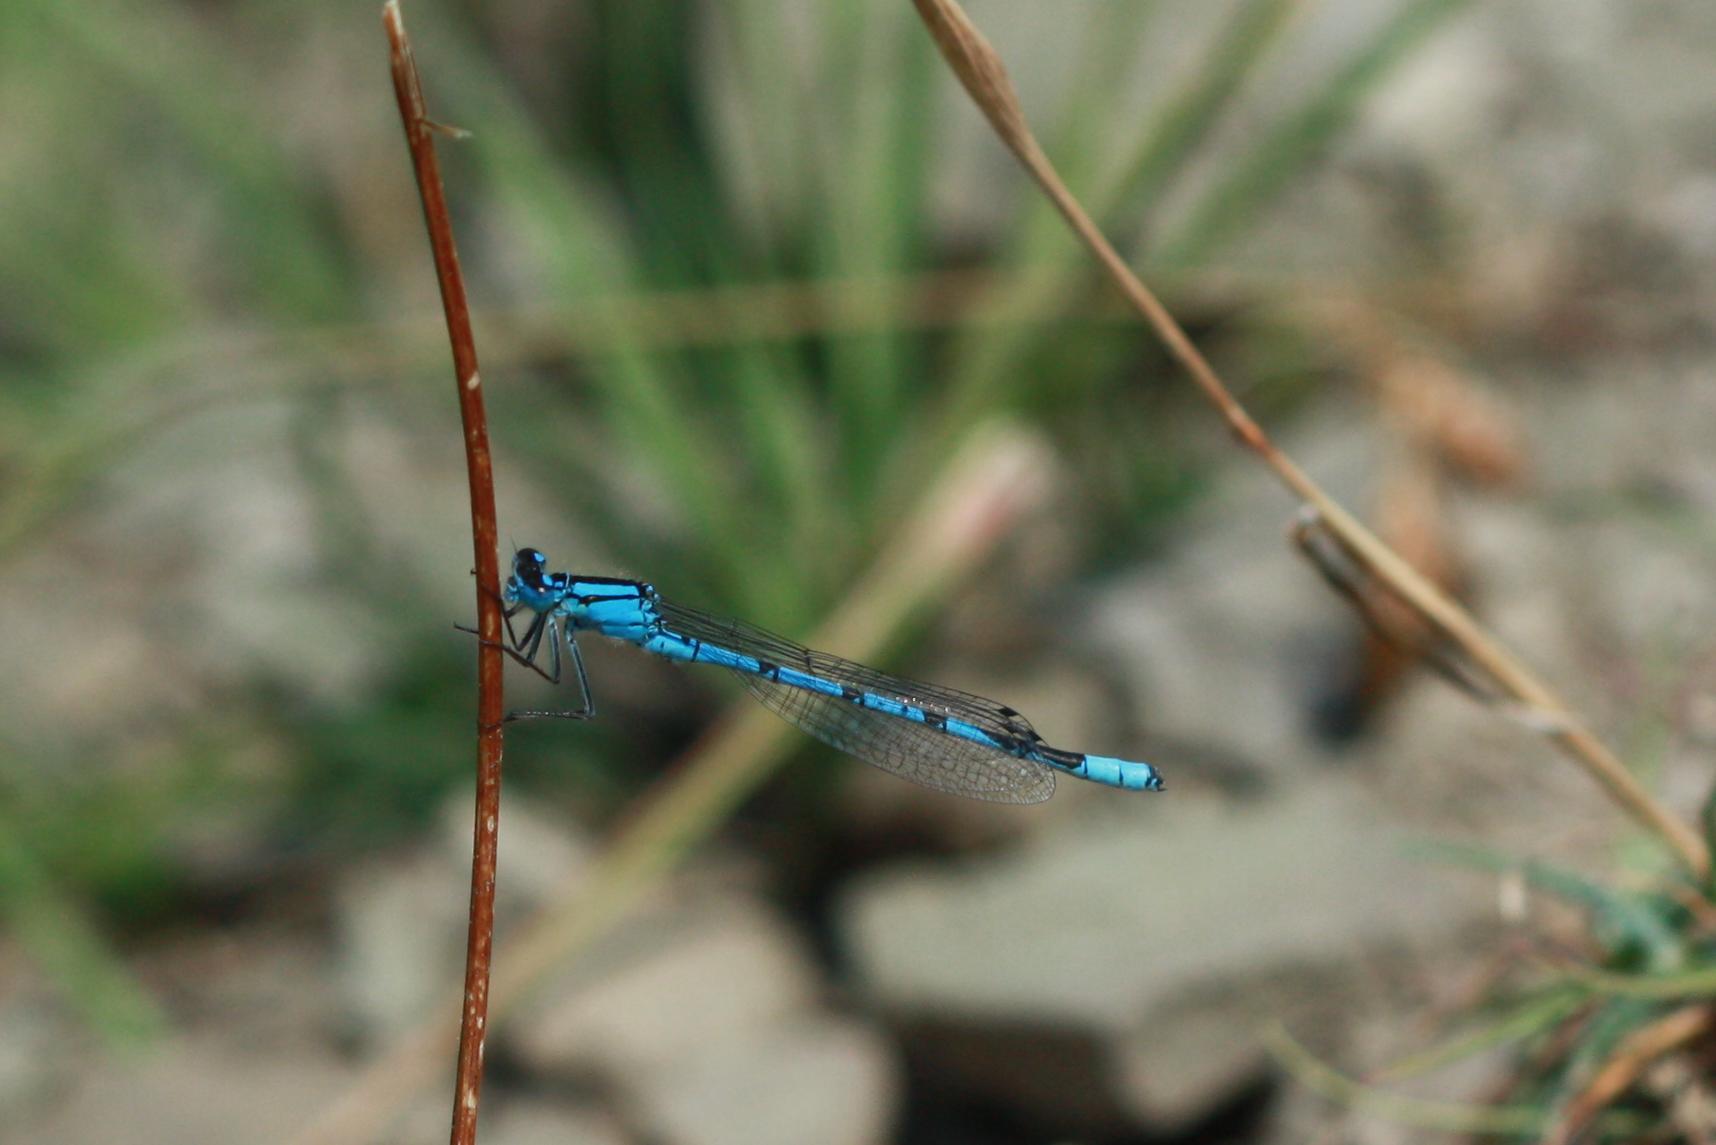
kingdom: Animalia
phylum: Arthropoda
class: Insecta
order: Odonata
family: Coenagrionidae
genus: Enallagma
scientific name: Enallagma cyathigerum
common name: Common blue damselfly
